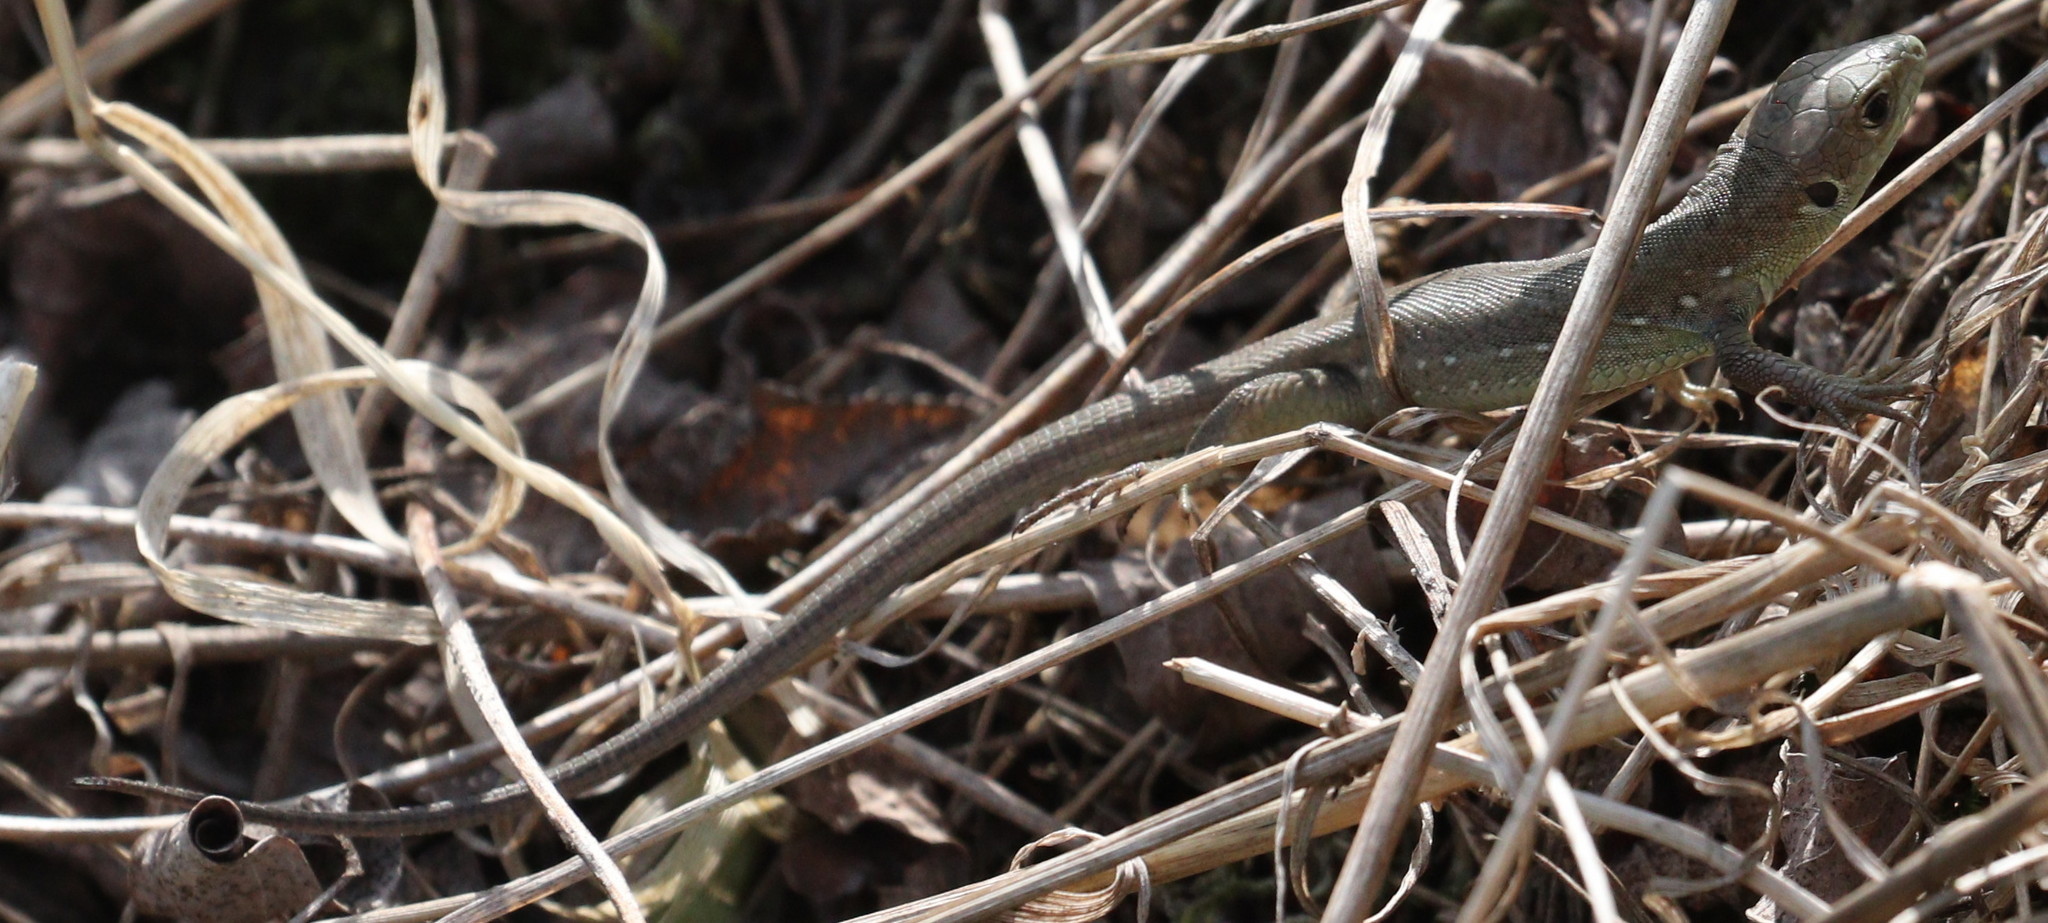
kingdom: Animalia
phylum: Chordata
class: Squamata
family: Lacertidae
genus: Lacerta
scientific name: Lacerta viridis
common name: European green lizard
